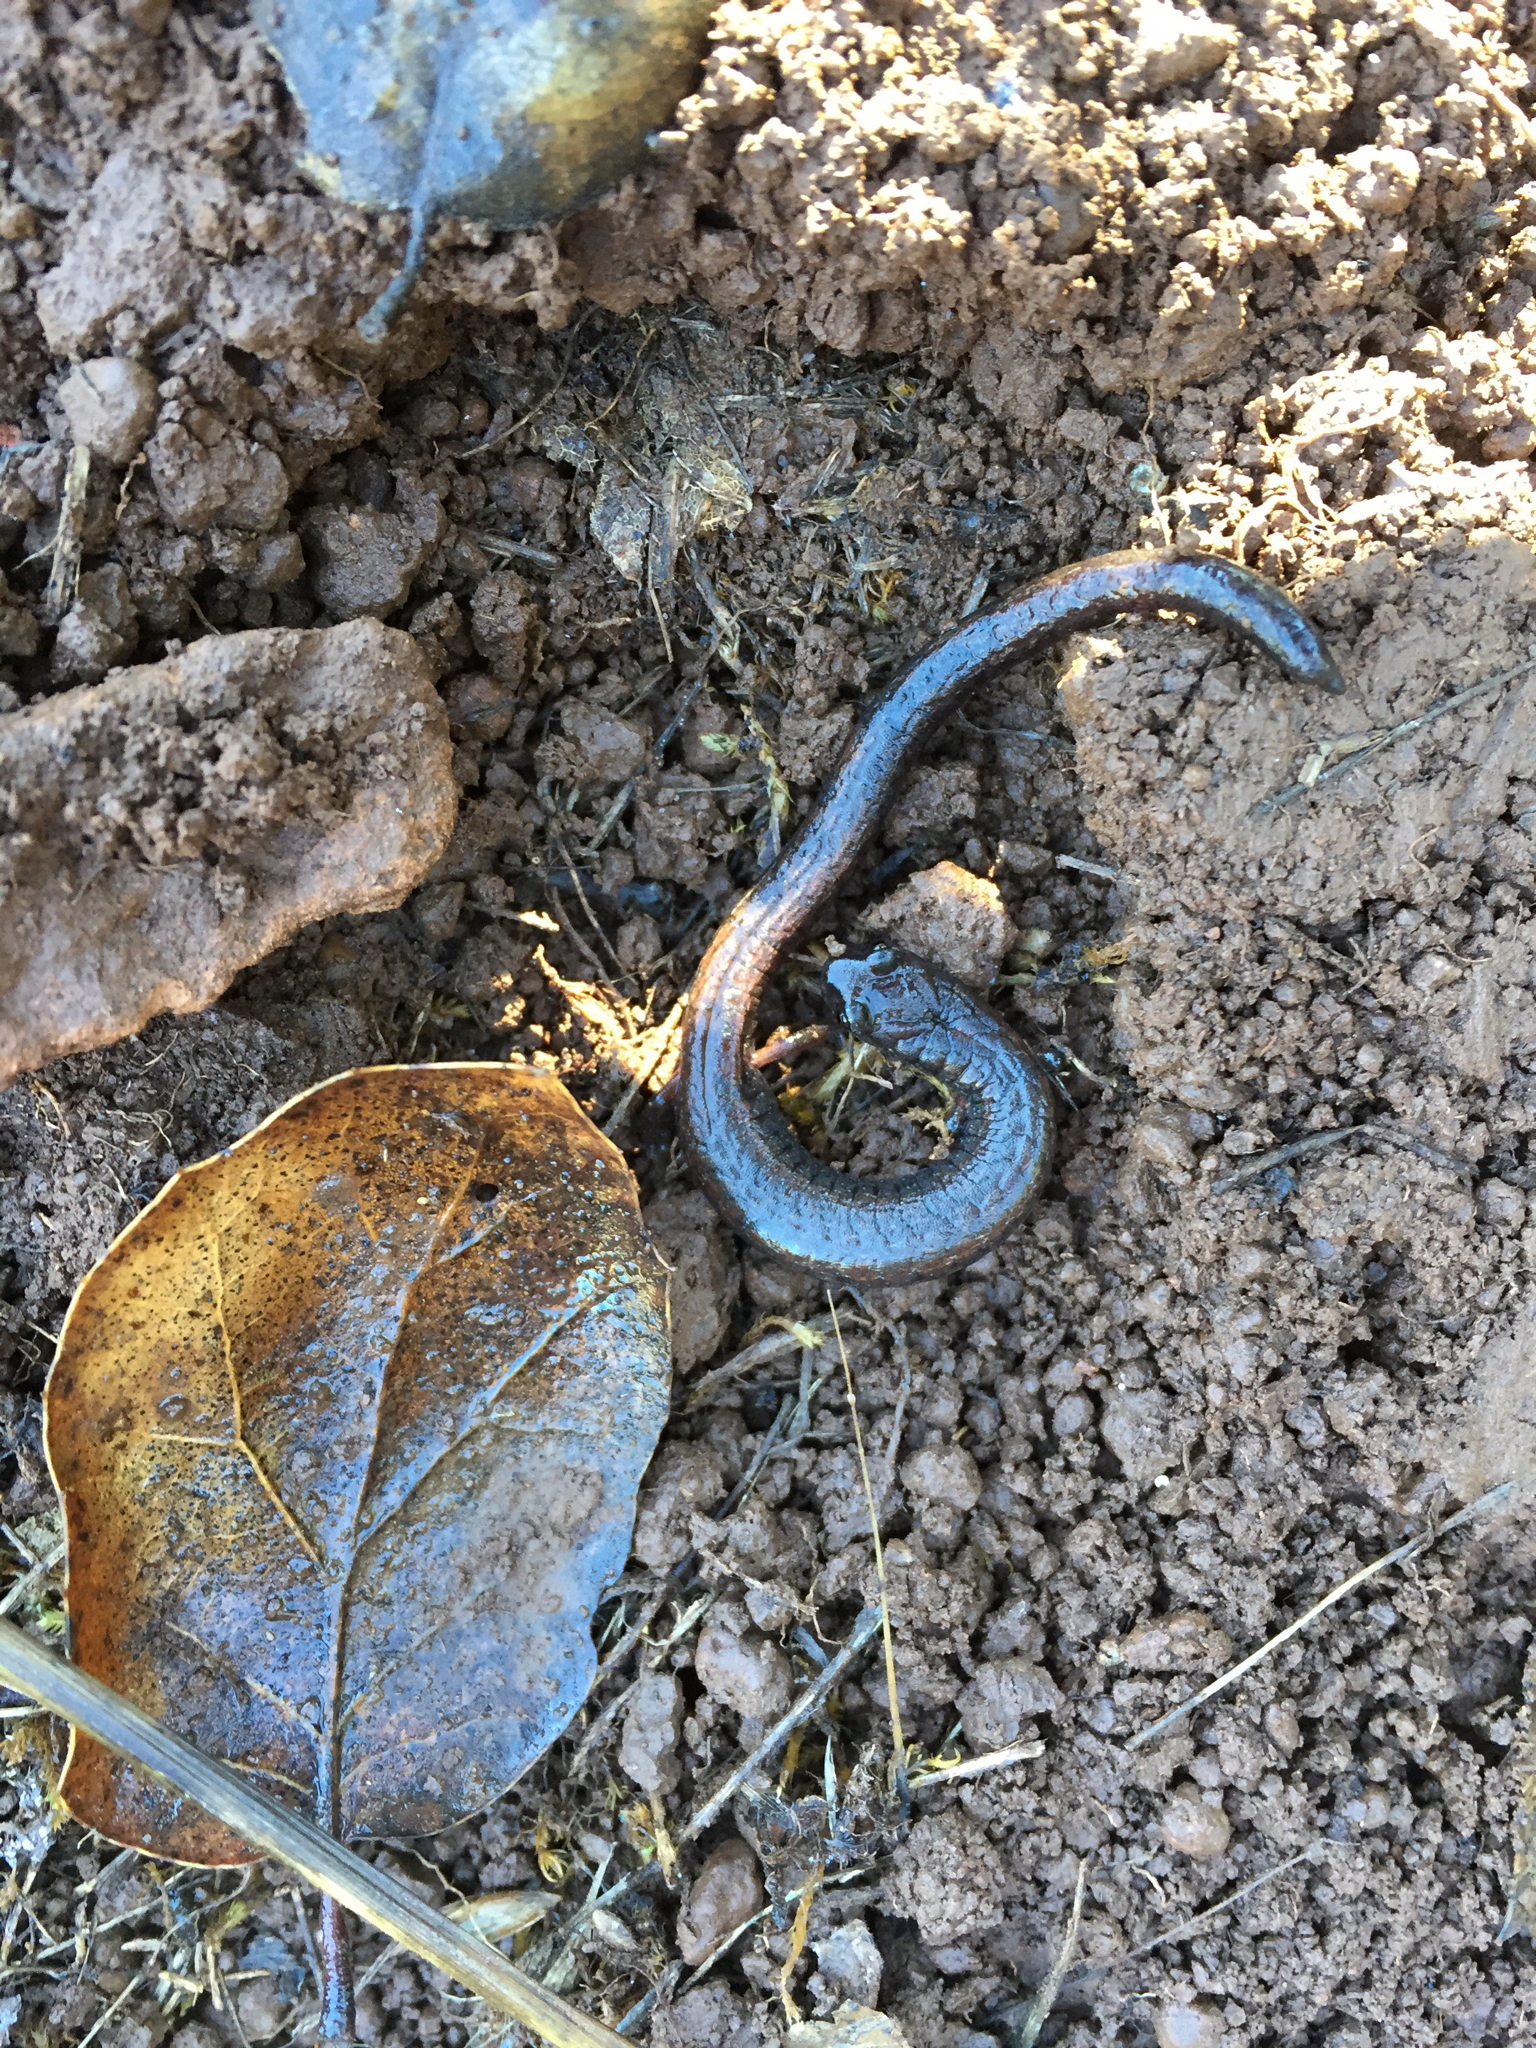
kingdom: Animalia
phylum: Chordata
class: Amphibia
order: Caudata
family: Plethodontidae
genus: Batrachoseps
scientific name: Batrachoseps attenuatus
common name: California slender salamander
